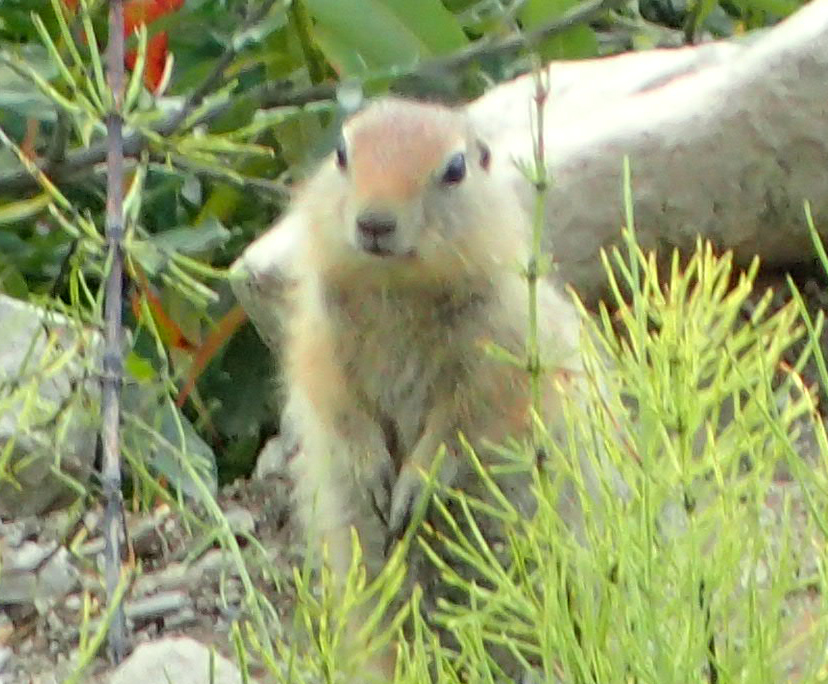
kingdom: Animalia
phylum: Chordata
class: Mammalia
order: Rodentia
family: Sciuridae
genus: Urocitellus
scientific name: Urocitellus parryii
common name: Arctic ground squirrel
